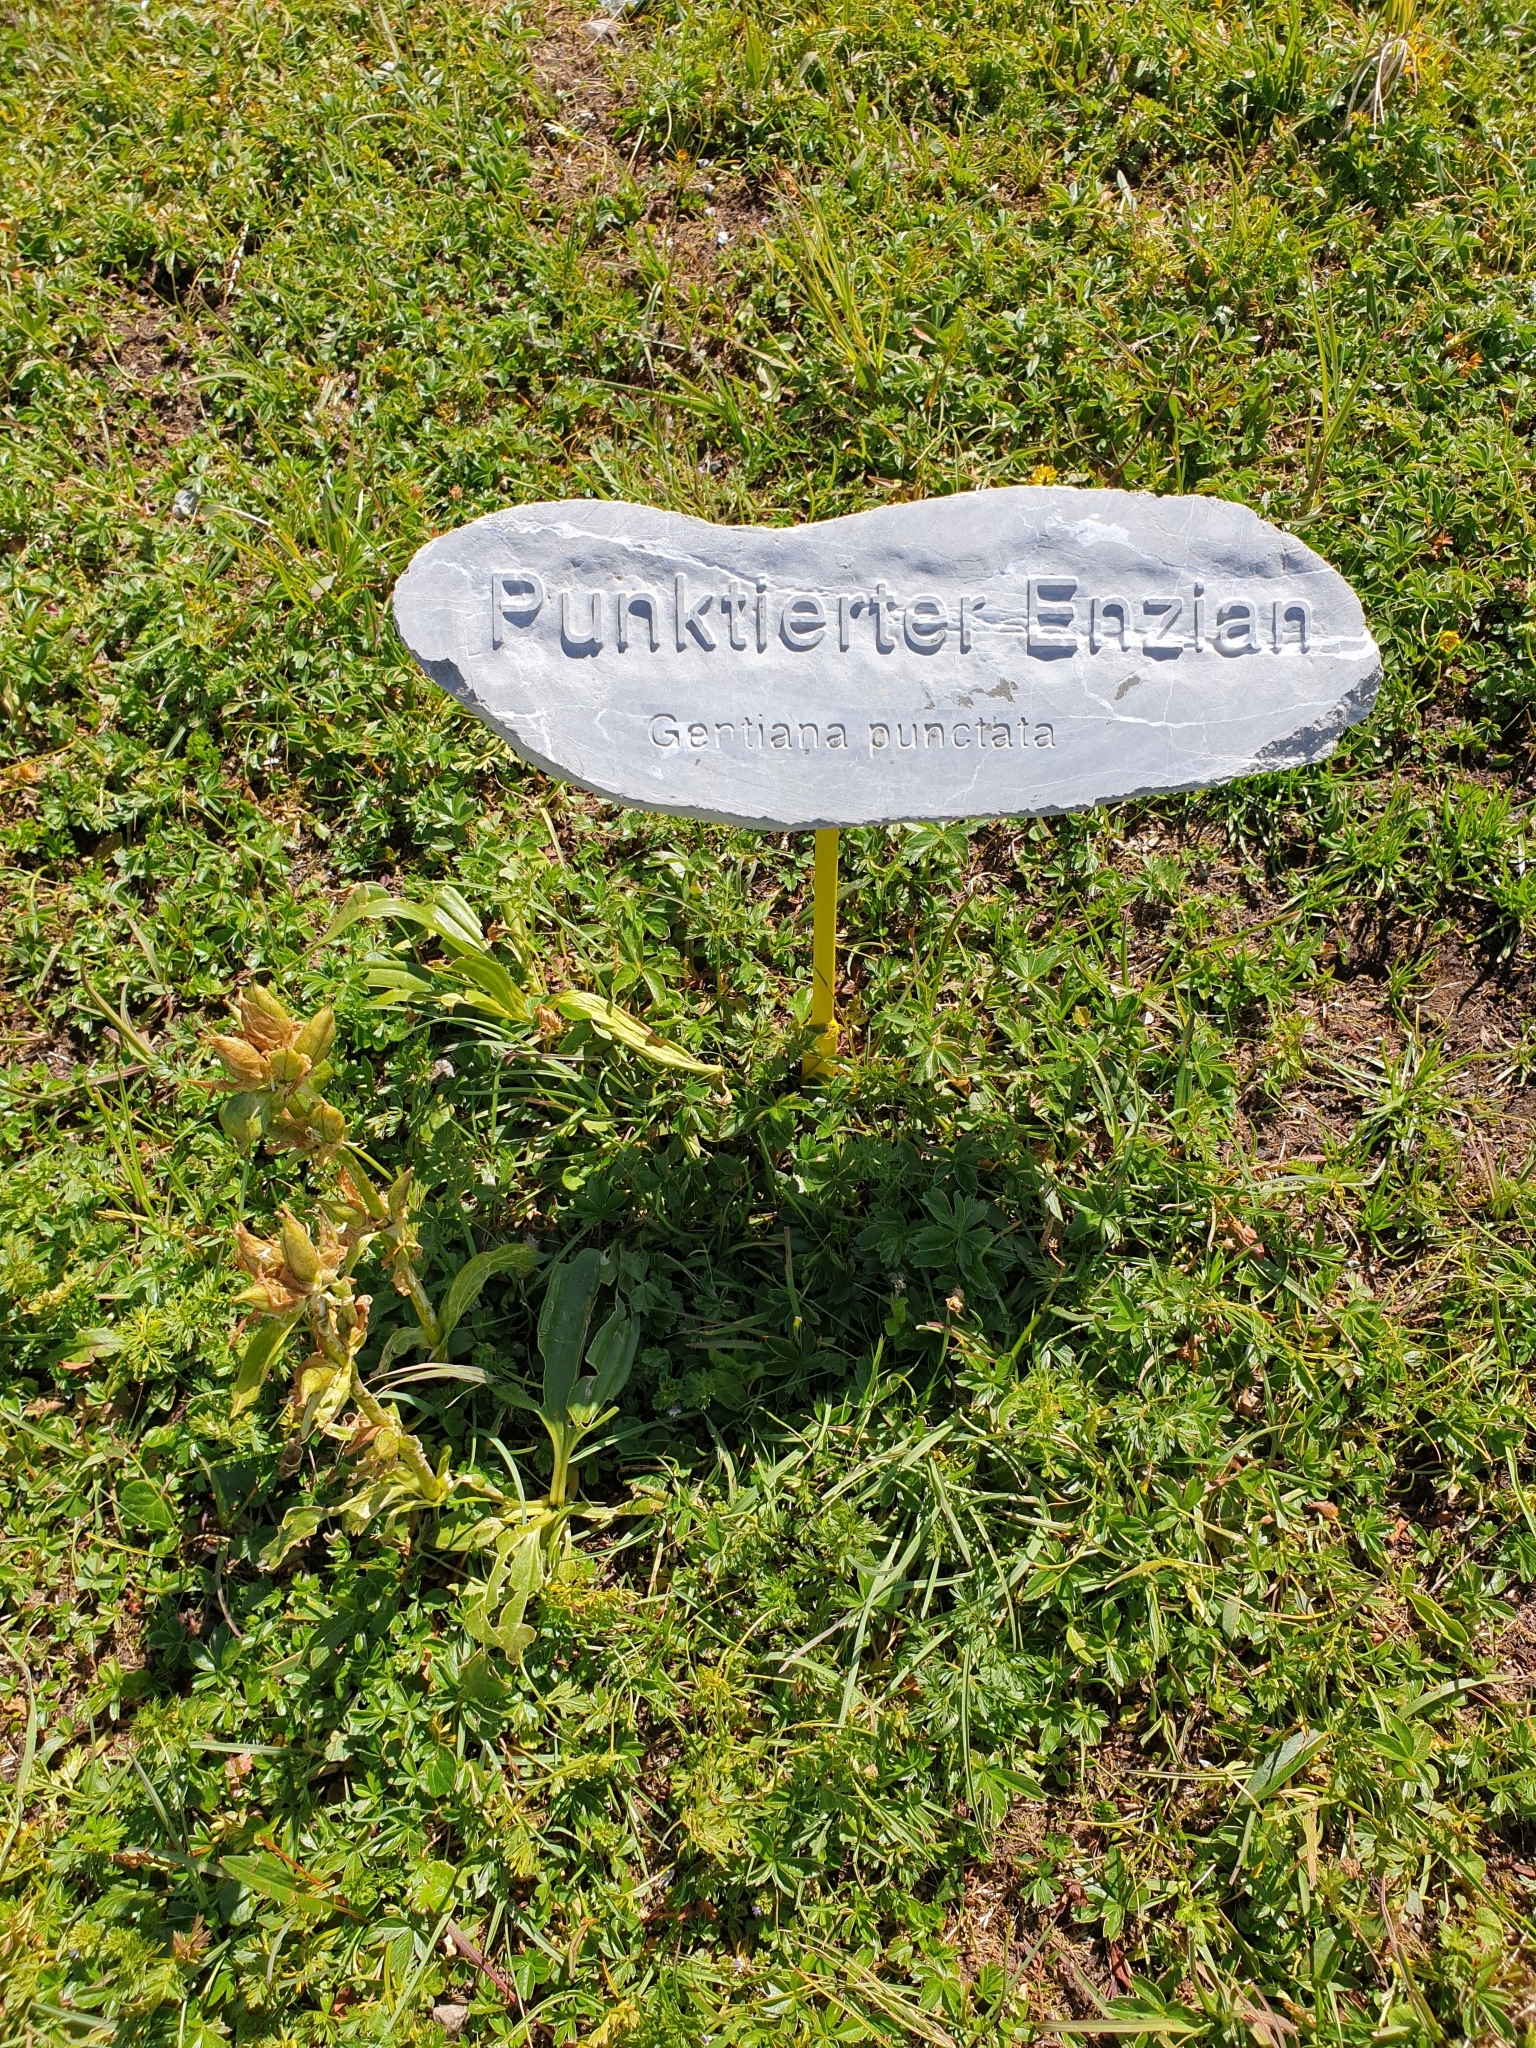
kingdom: Plantae
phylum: Tracheophyta
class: Magnoliopsida
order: Gentianales
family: Gentianaceae
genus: Gentiana
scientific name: Gentiana punctata
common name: Spotted gentian
